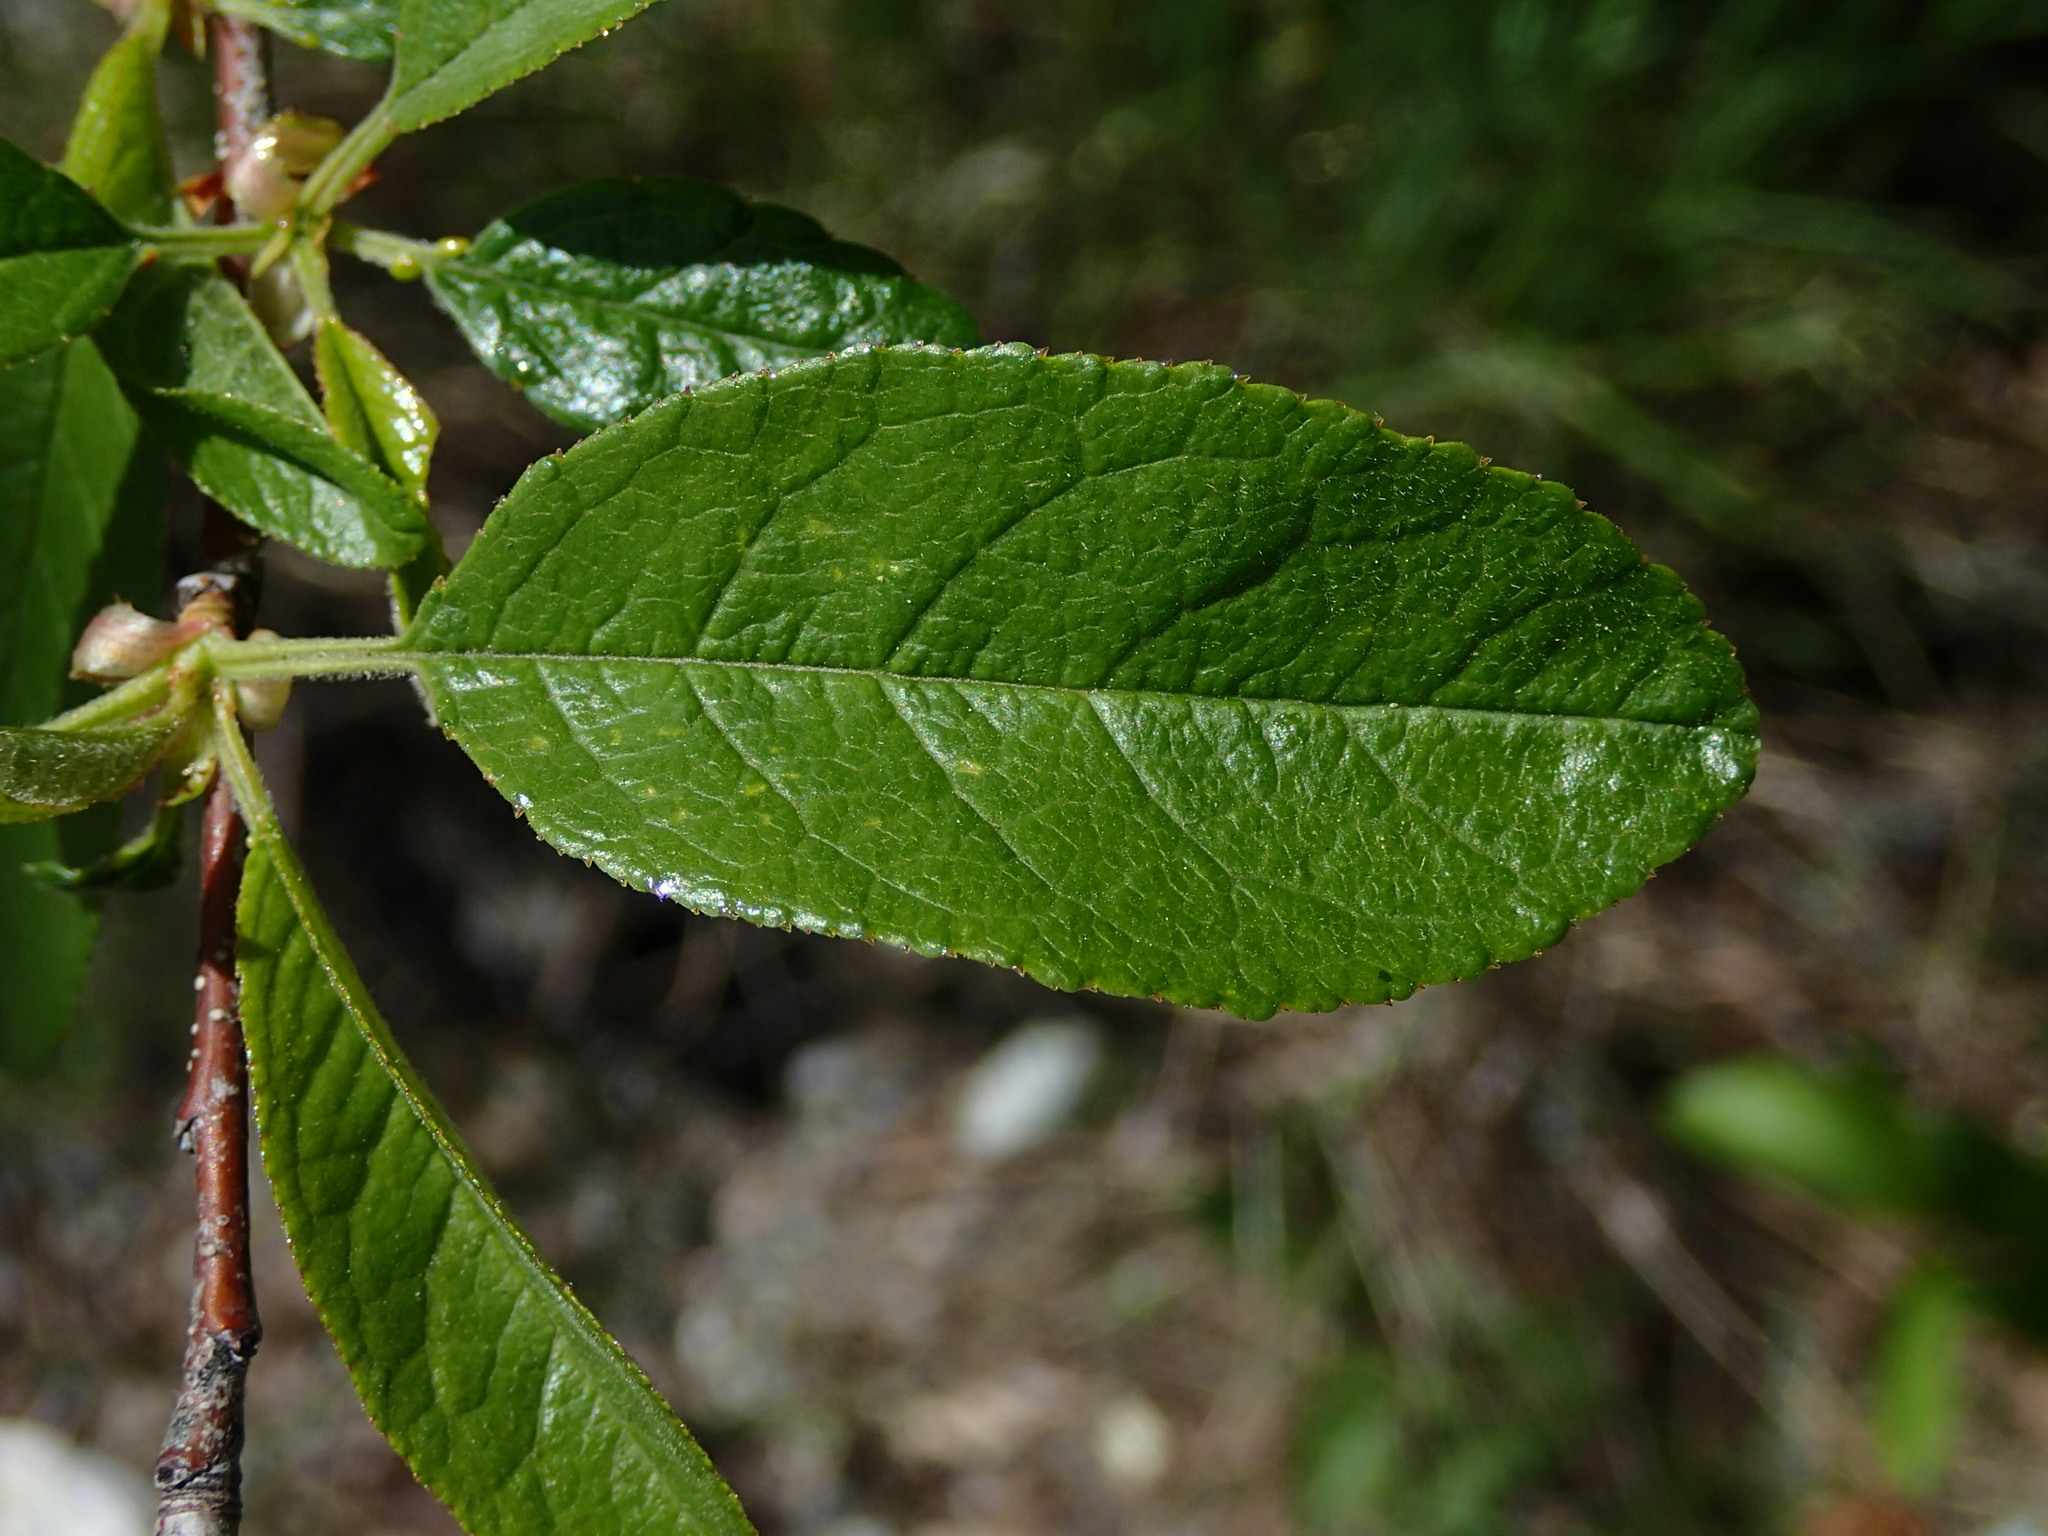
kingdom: Plantae
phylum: Tracheophyta
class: Magnoliopsida
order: Rosales
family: Rosaceae
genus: Prunus
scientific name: Prunus emarginata
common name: Bitter cherry
